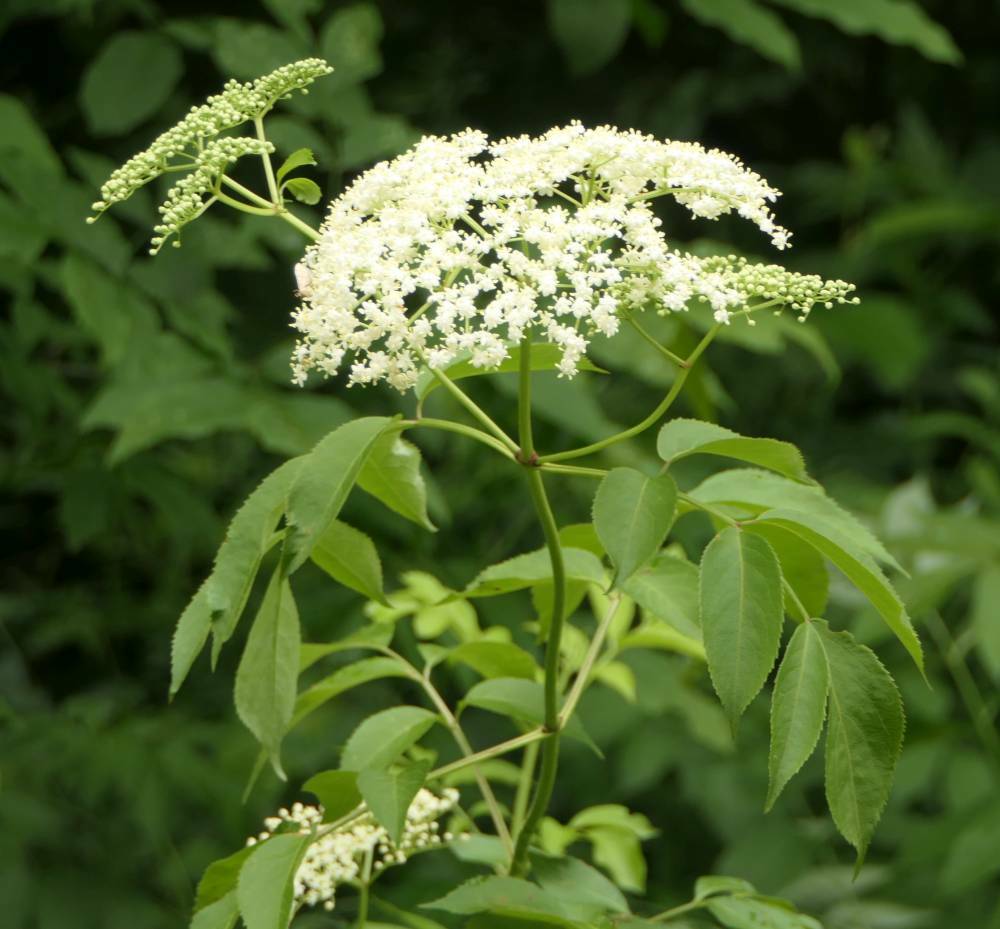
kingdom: Plantae
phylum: Tracheophyta
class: Magnoliopsida
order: Dipsacales
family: Viburnaceae
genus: Sambucus
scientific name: Sambucus canadensis
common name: American elder
